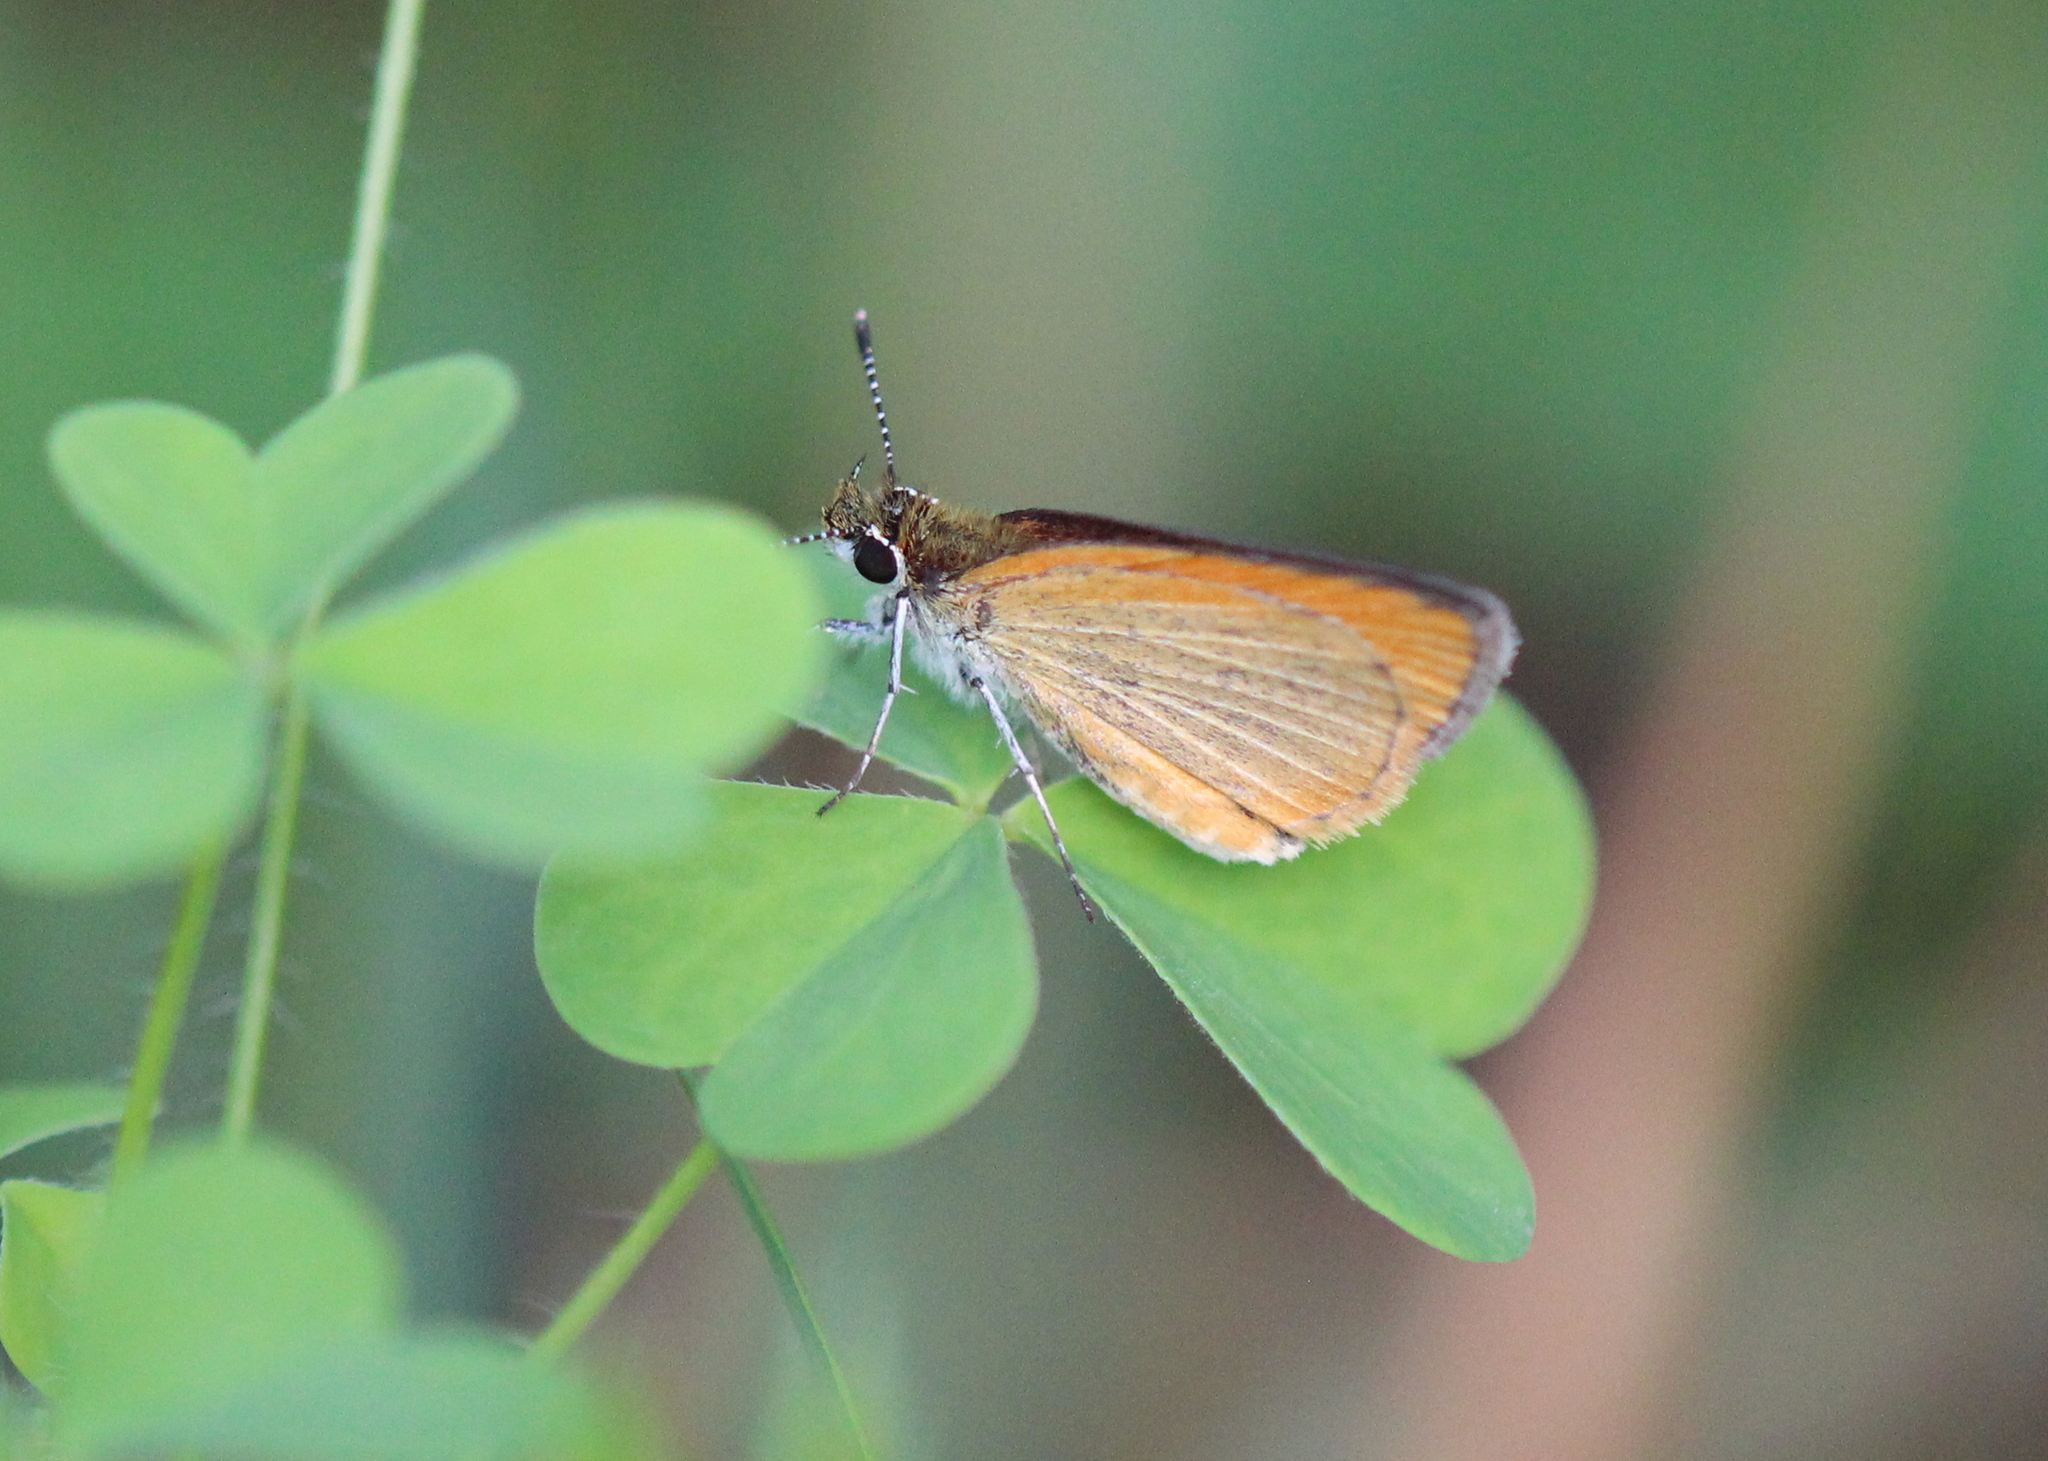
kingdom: Animalia
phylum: Arthropoda
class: Insecta
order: Lepidoptera
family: Hesperiidae
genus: Ancyloxypha
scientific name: Ancyloxypha numitor
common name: Least skipper
